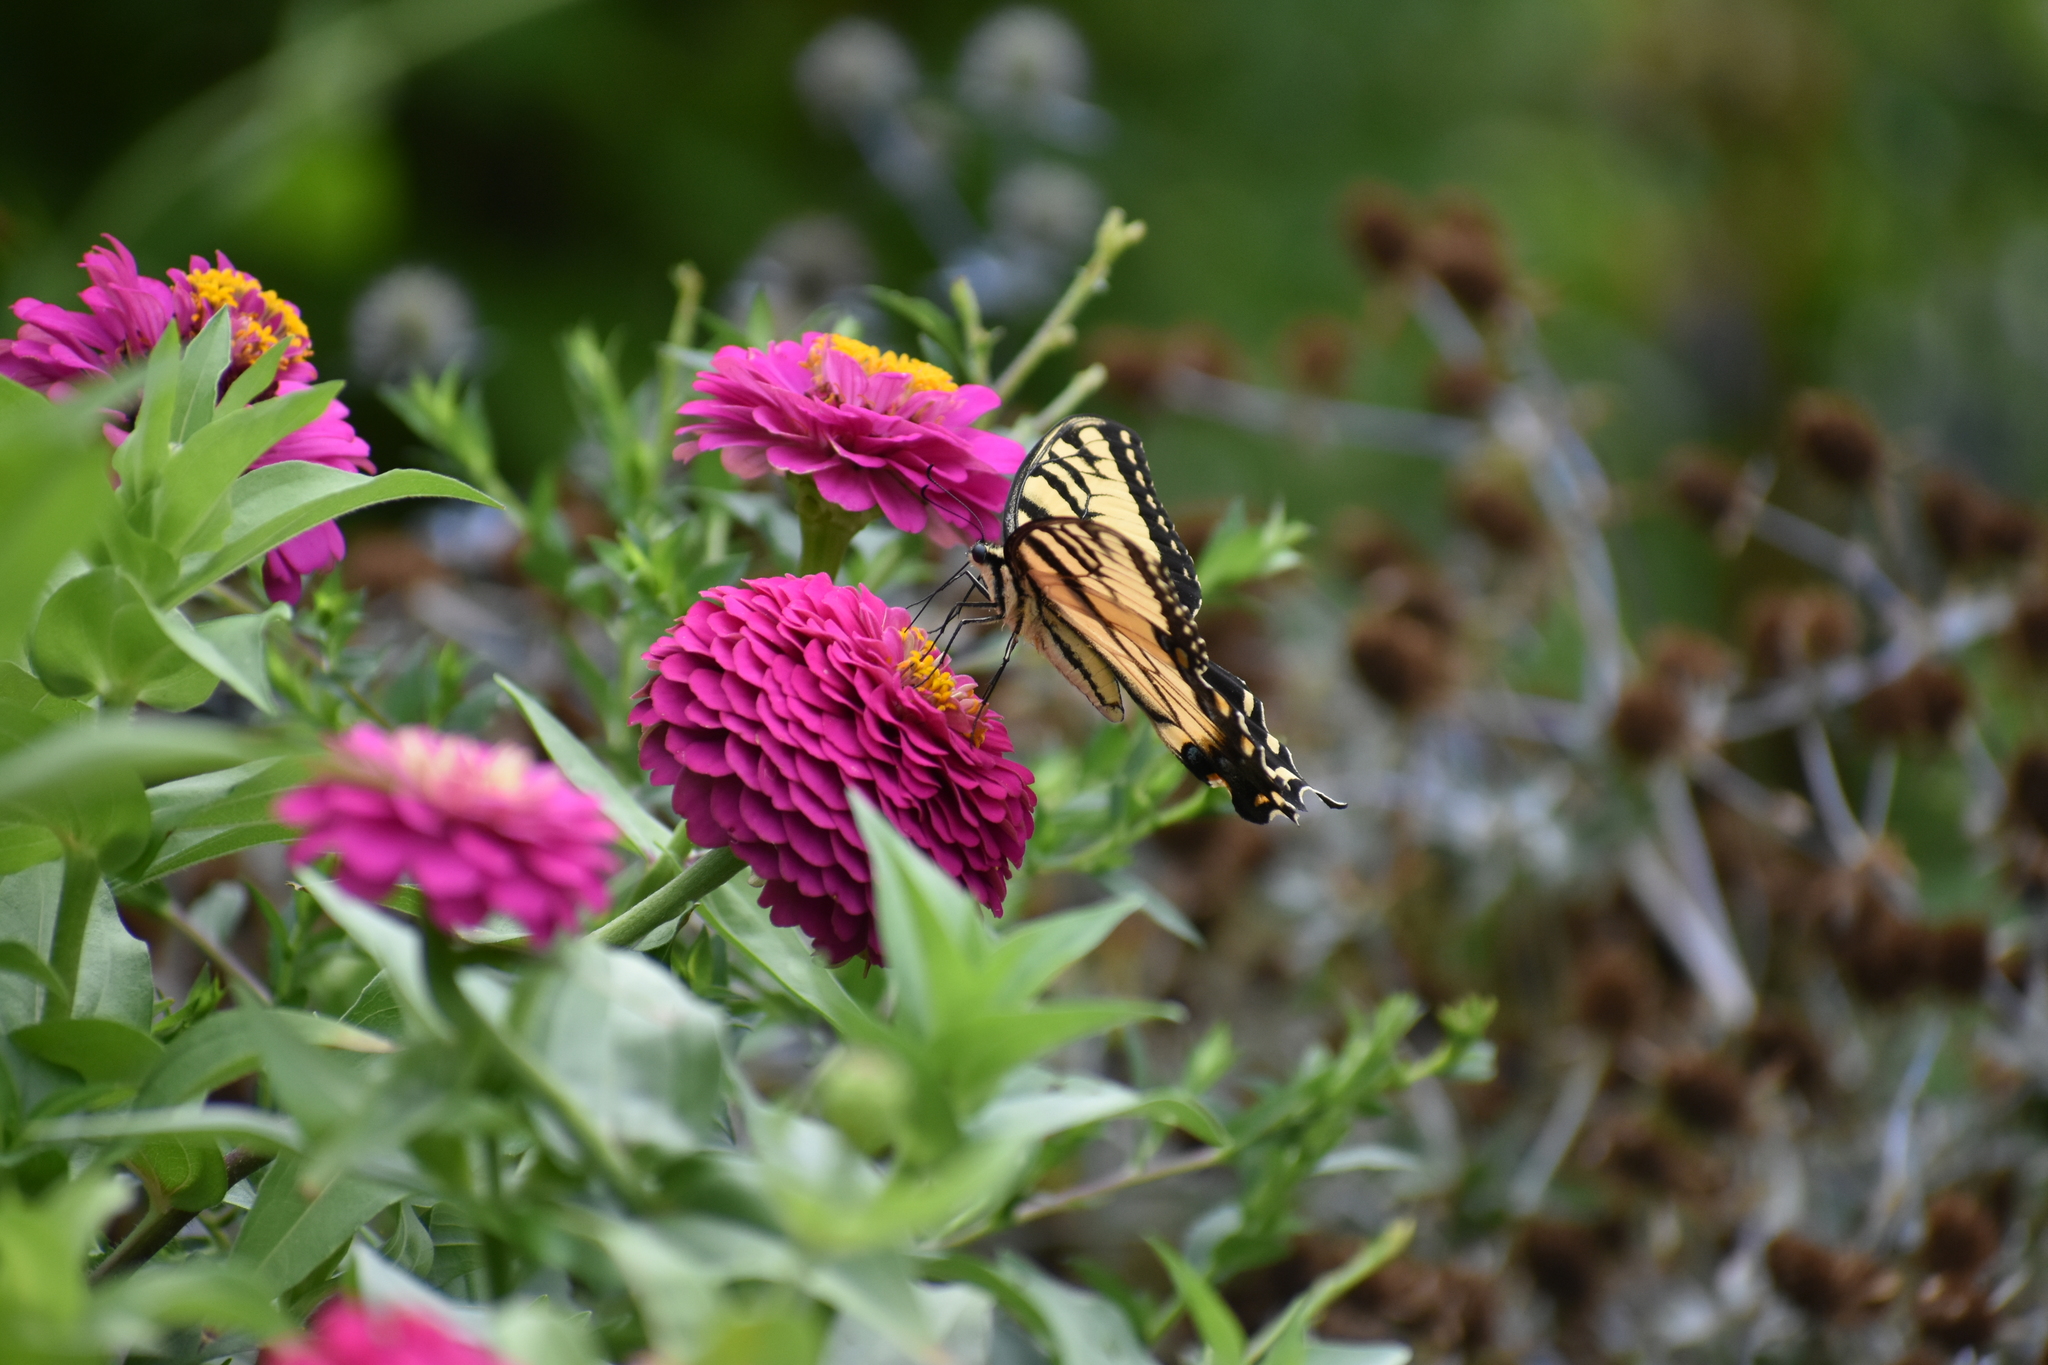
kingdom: Animalia
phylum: Arthropoda
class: Insecta
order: Lepidoptera
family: Papilionidae
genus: Papilio
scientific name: Papilio glaucus
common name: Tiger swallowtail
